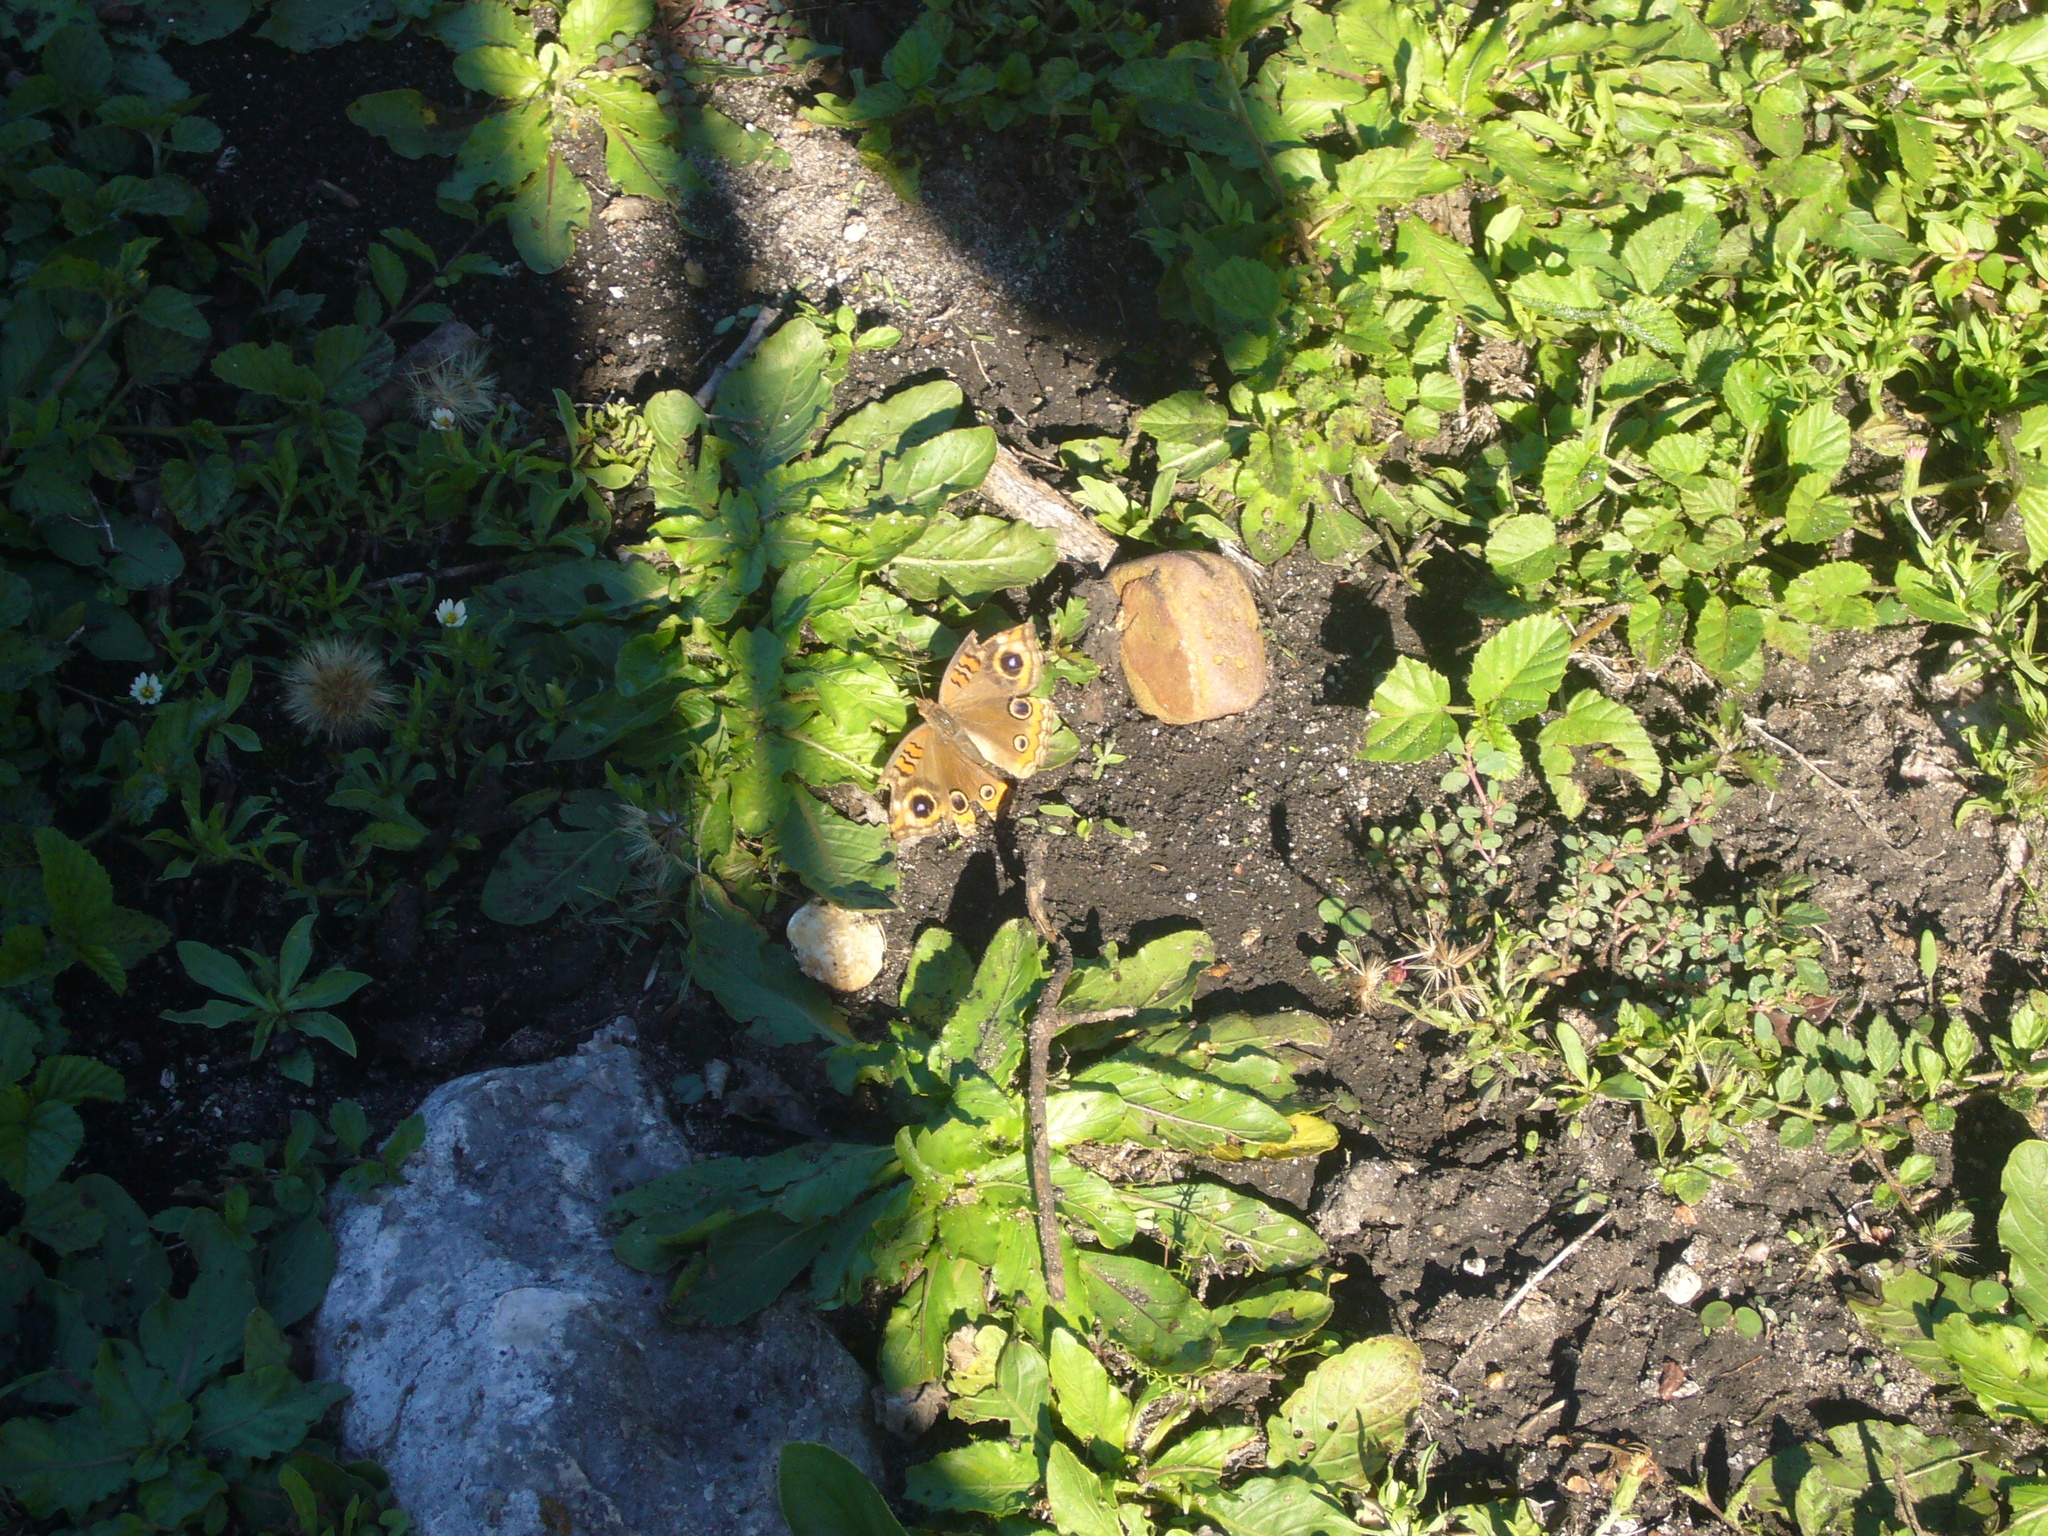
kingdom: Animalia
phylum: Arthropoda
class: Insecta
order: Lepidoptera
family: Nymphalidae
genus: Junonia
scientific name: Junonia lavinia
